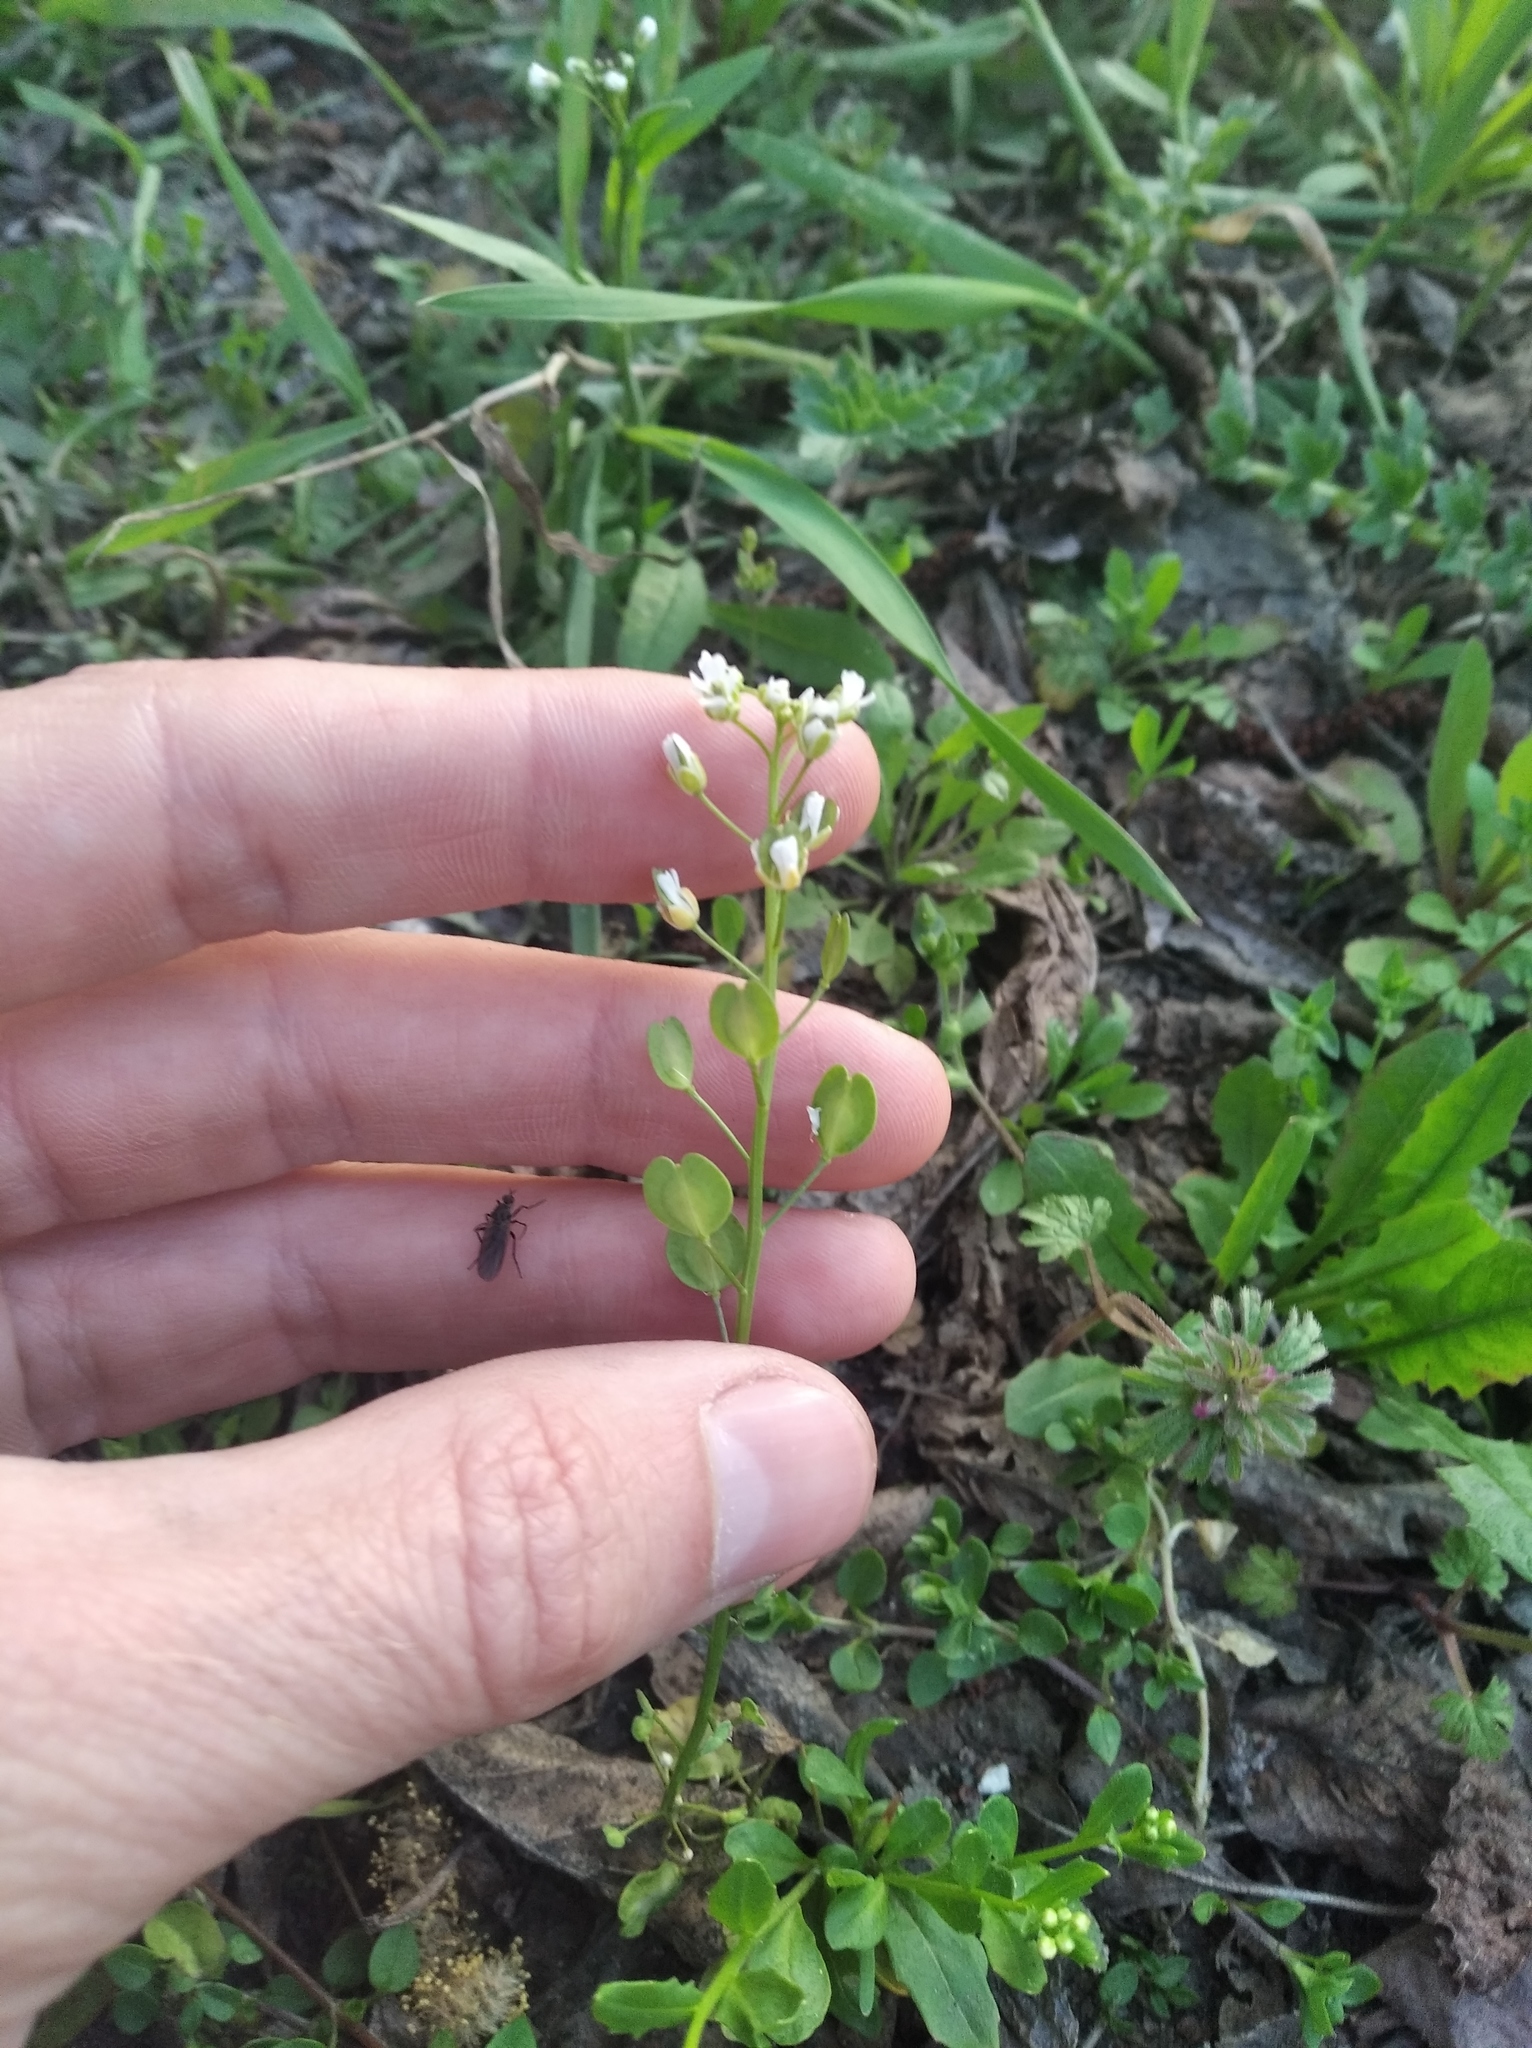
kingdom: Plantae
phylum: Tracheophyta
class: Magnoliopsida
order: Brassicales
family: Brassicaceae
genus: Thlaspi
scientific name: Thlaspi arvense
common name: Field pennycress
